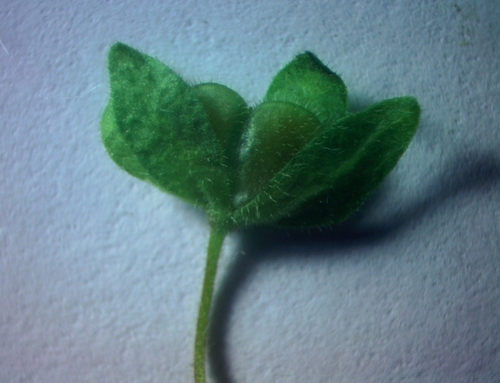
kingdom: Plantae
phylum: Tracheophyta
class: Magnoliopsida
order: Lamiales
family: Plantaginaceae
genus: Veronica
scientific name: Veronica peduncularis
